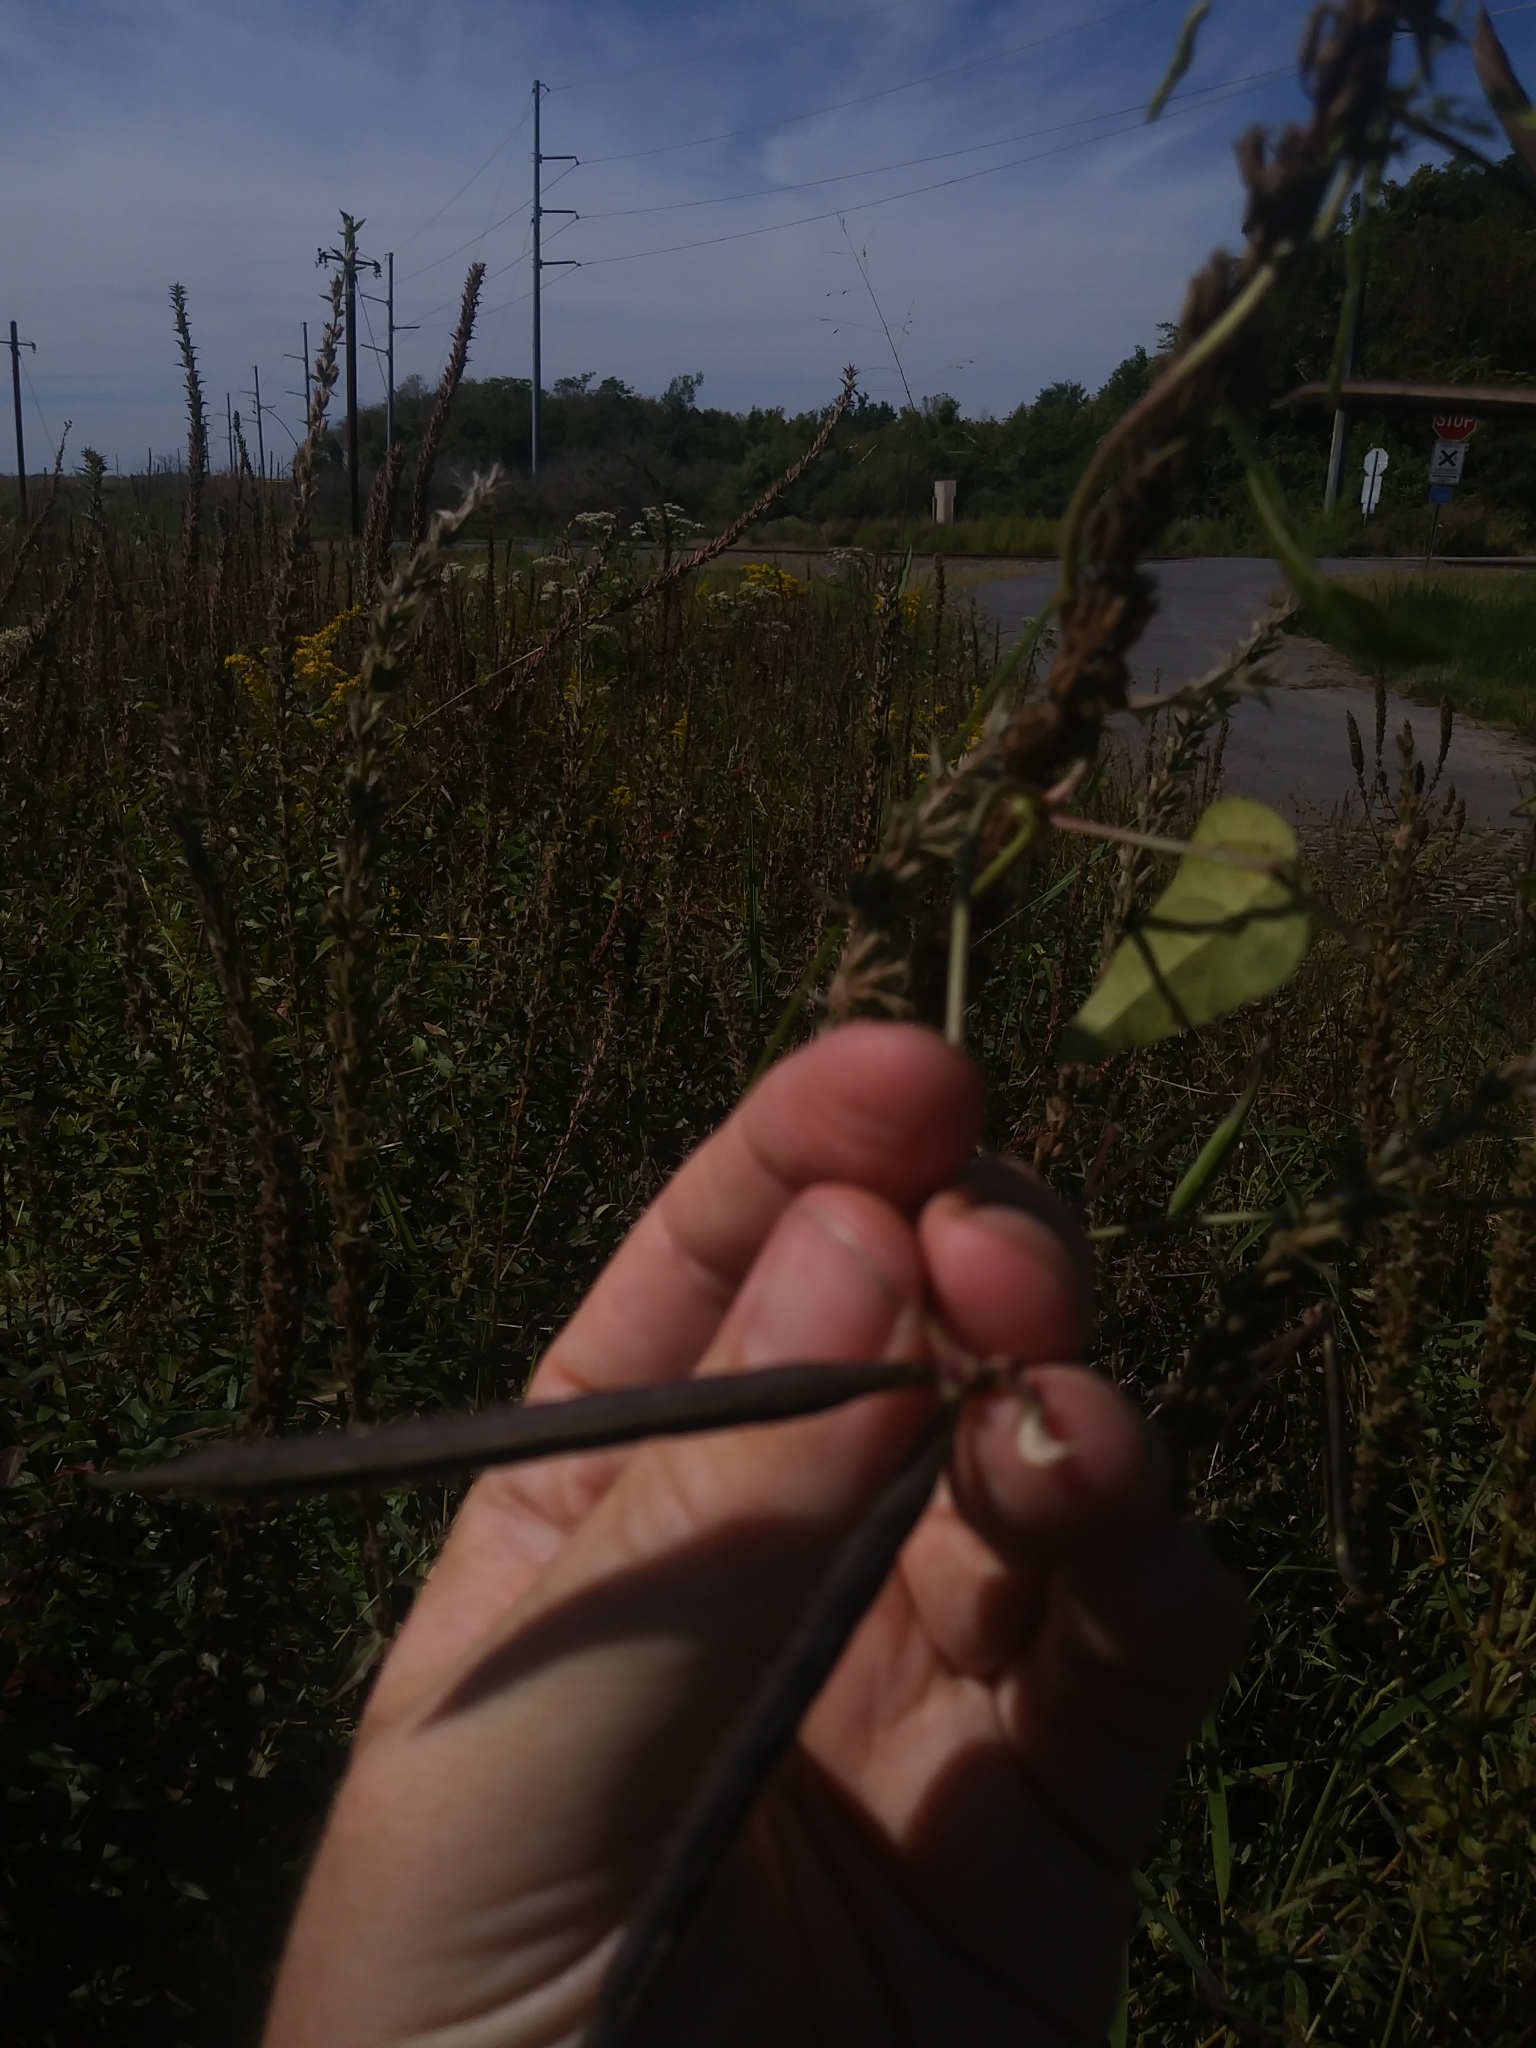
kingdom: Plantae
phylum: Tracheophyta
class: Magnoliopsida
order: Fabales
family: Fabaceae
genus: Strophostyles
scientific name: Strophostyles helvola
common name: Trailing wild bean
